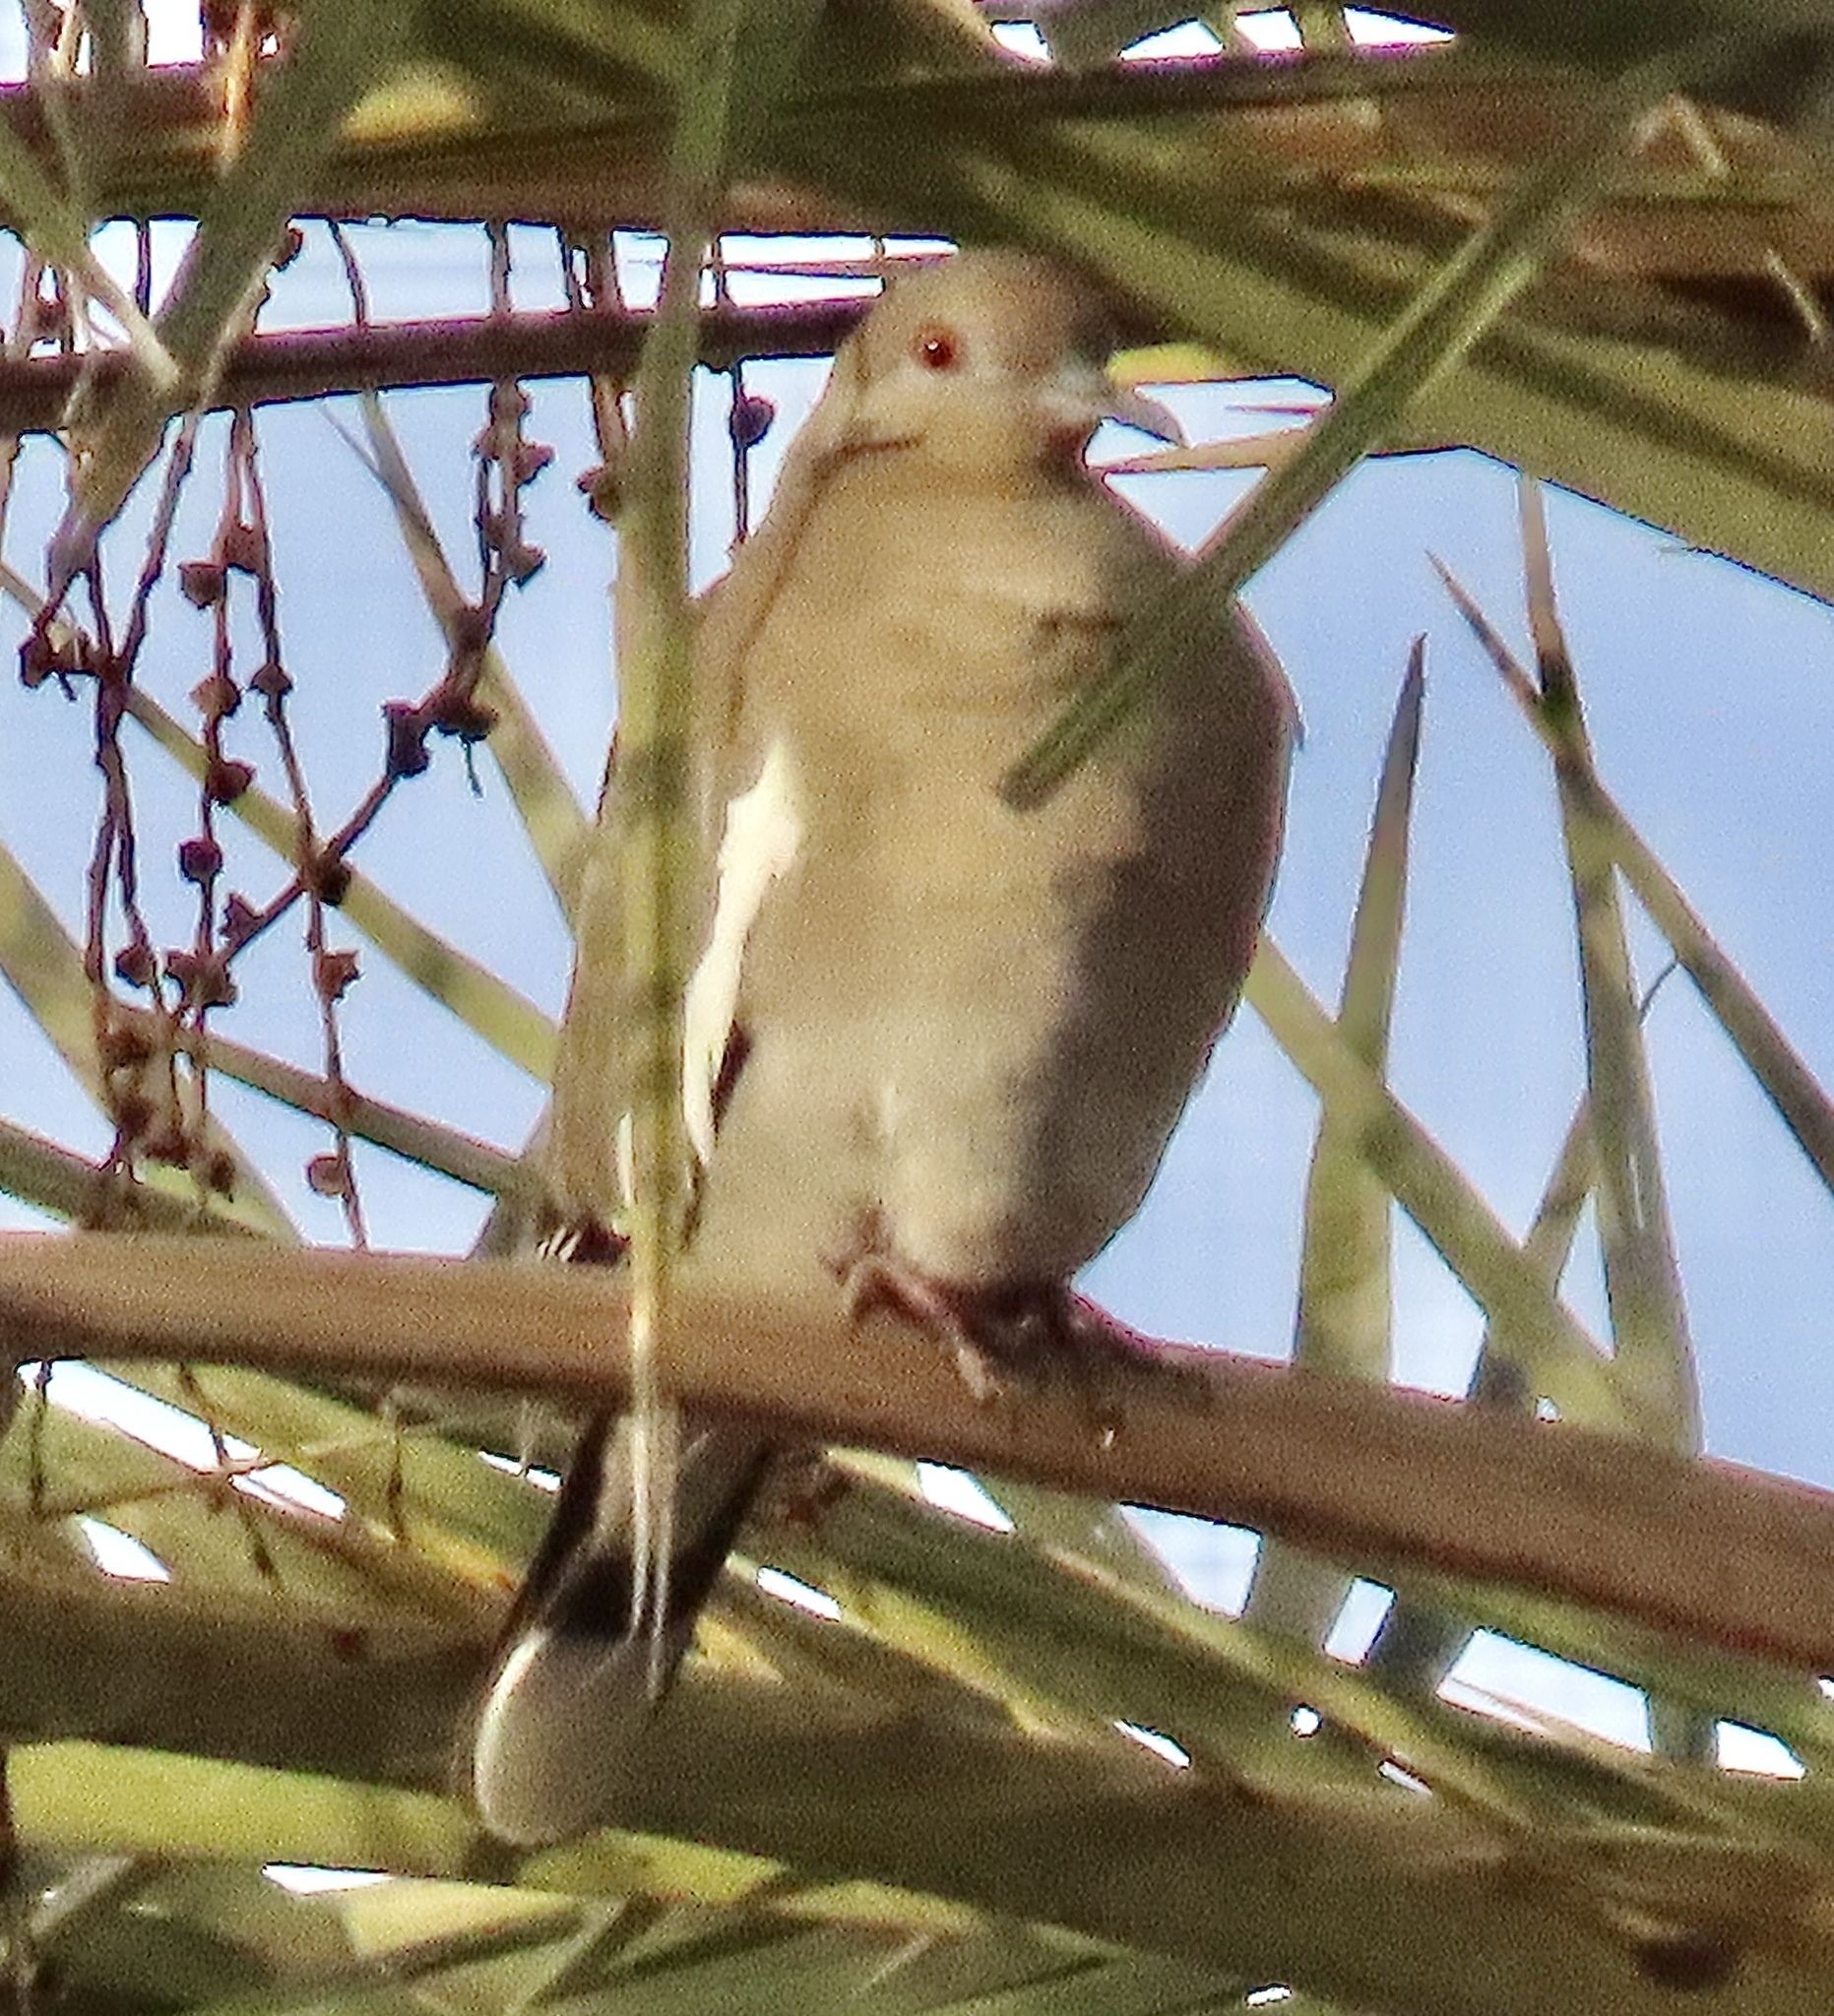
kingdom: Animalia
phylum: Chordata
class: Aves
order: Columbiformes
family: Columbidae
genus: Zenaida
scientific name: Zenaida asiatica
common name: White-winged dove
